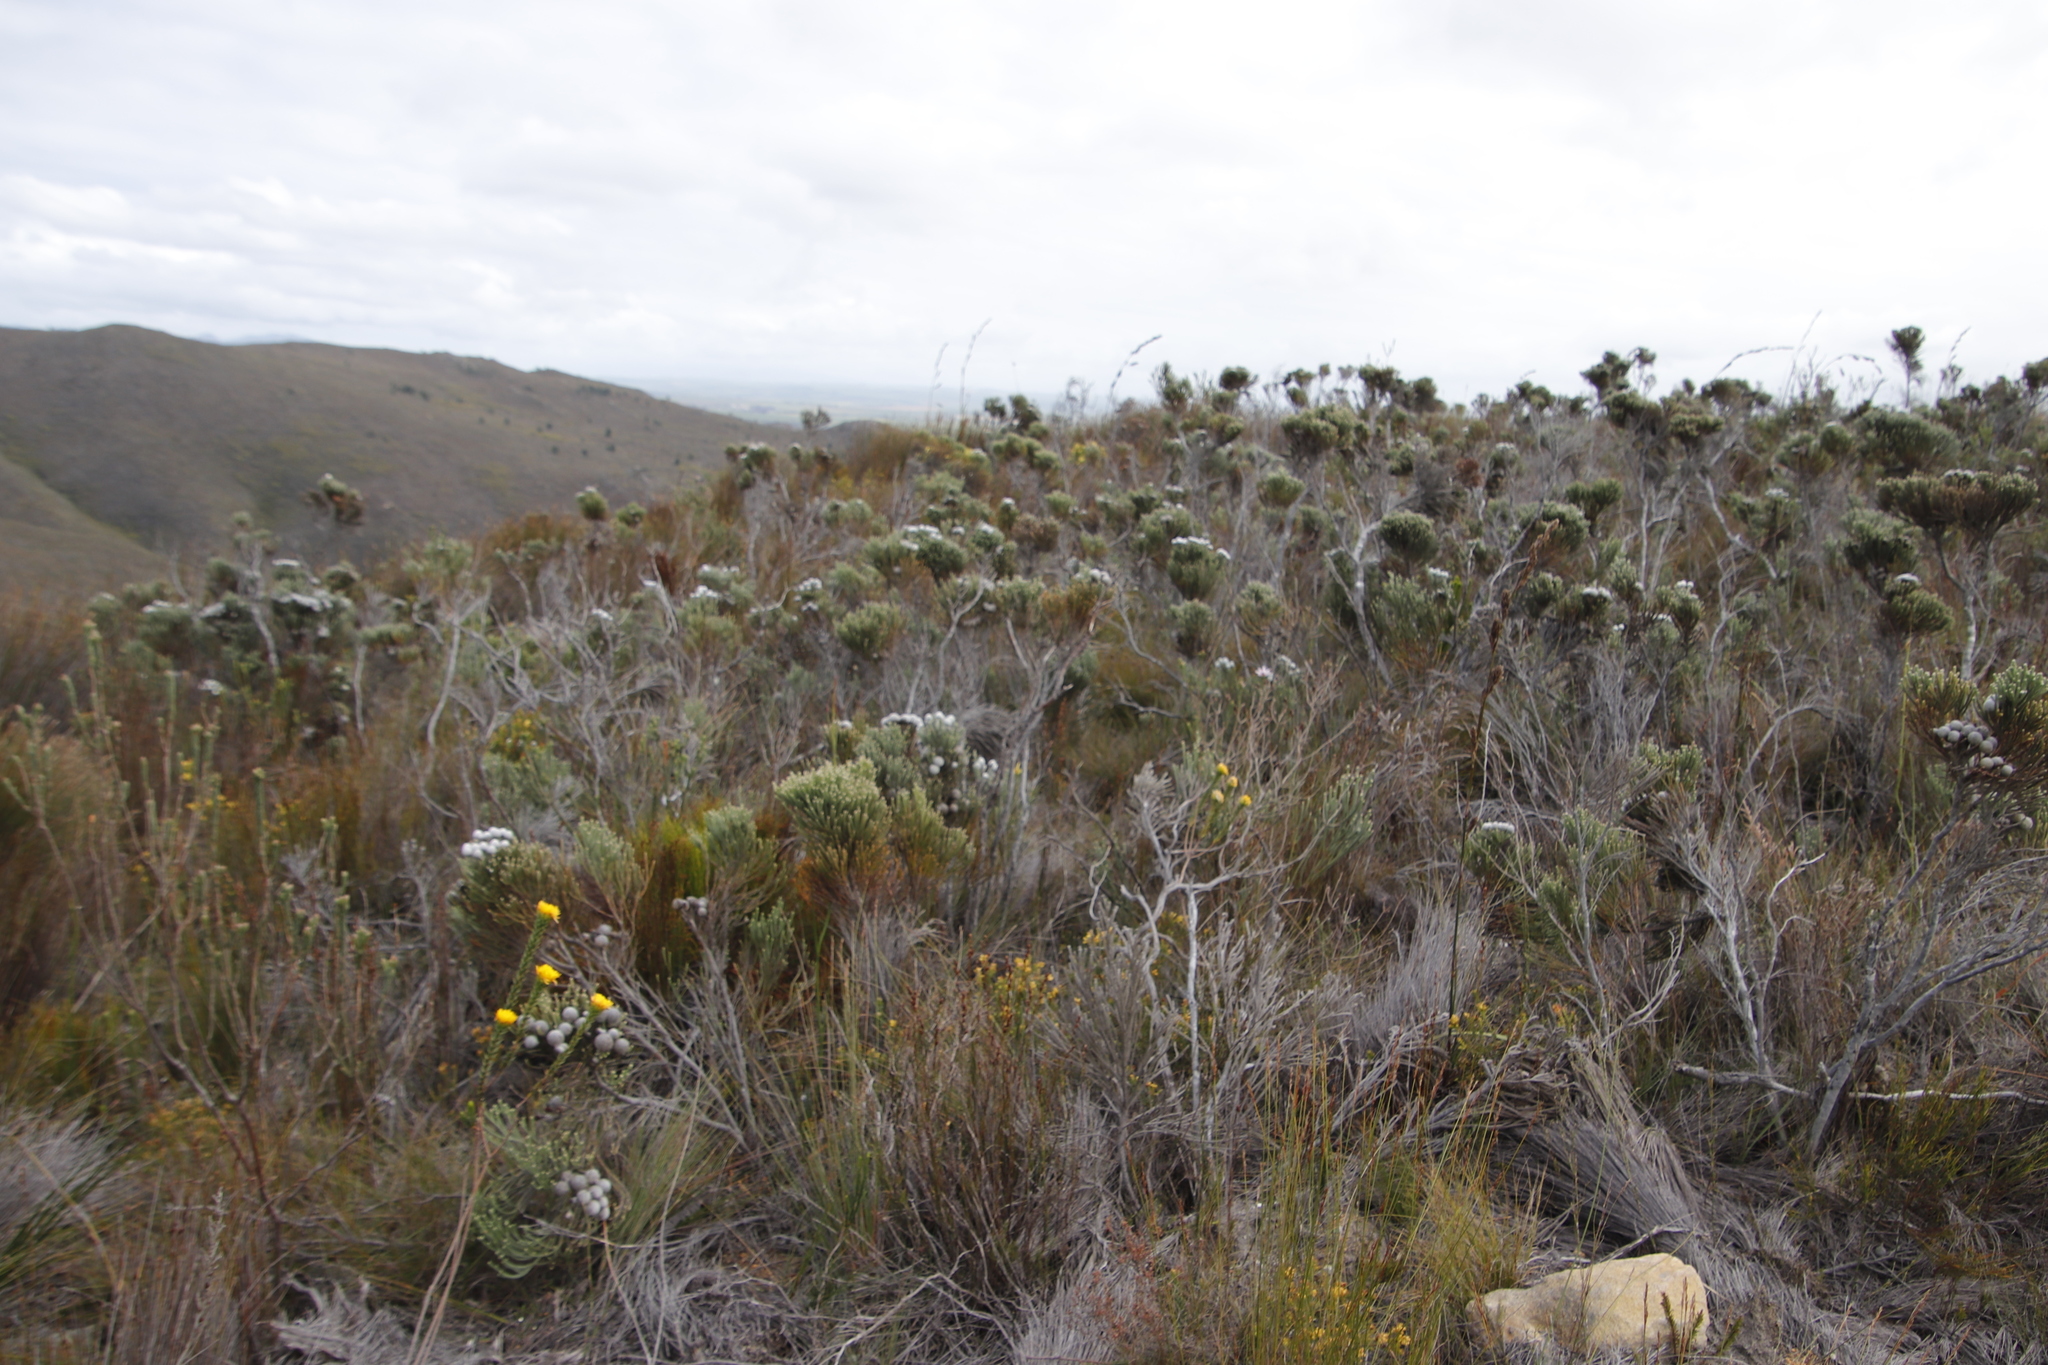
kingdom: Plantae
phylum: Tracheophyta
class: Magnoliopsida
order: Malvales
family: Thymelaeaceae
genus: Lachnaea
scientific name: Lachnaea aurea
